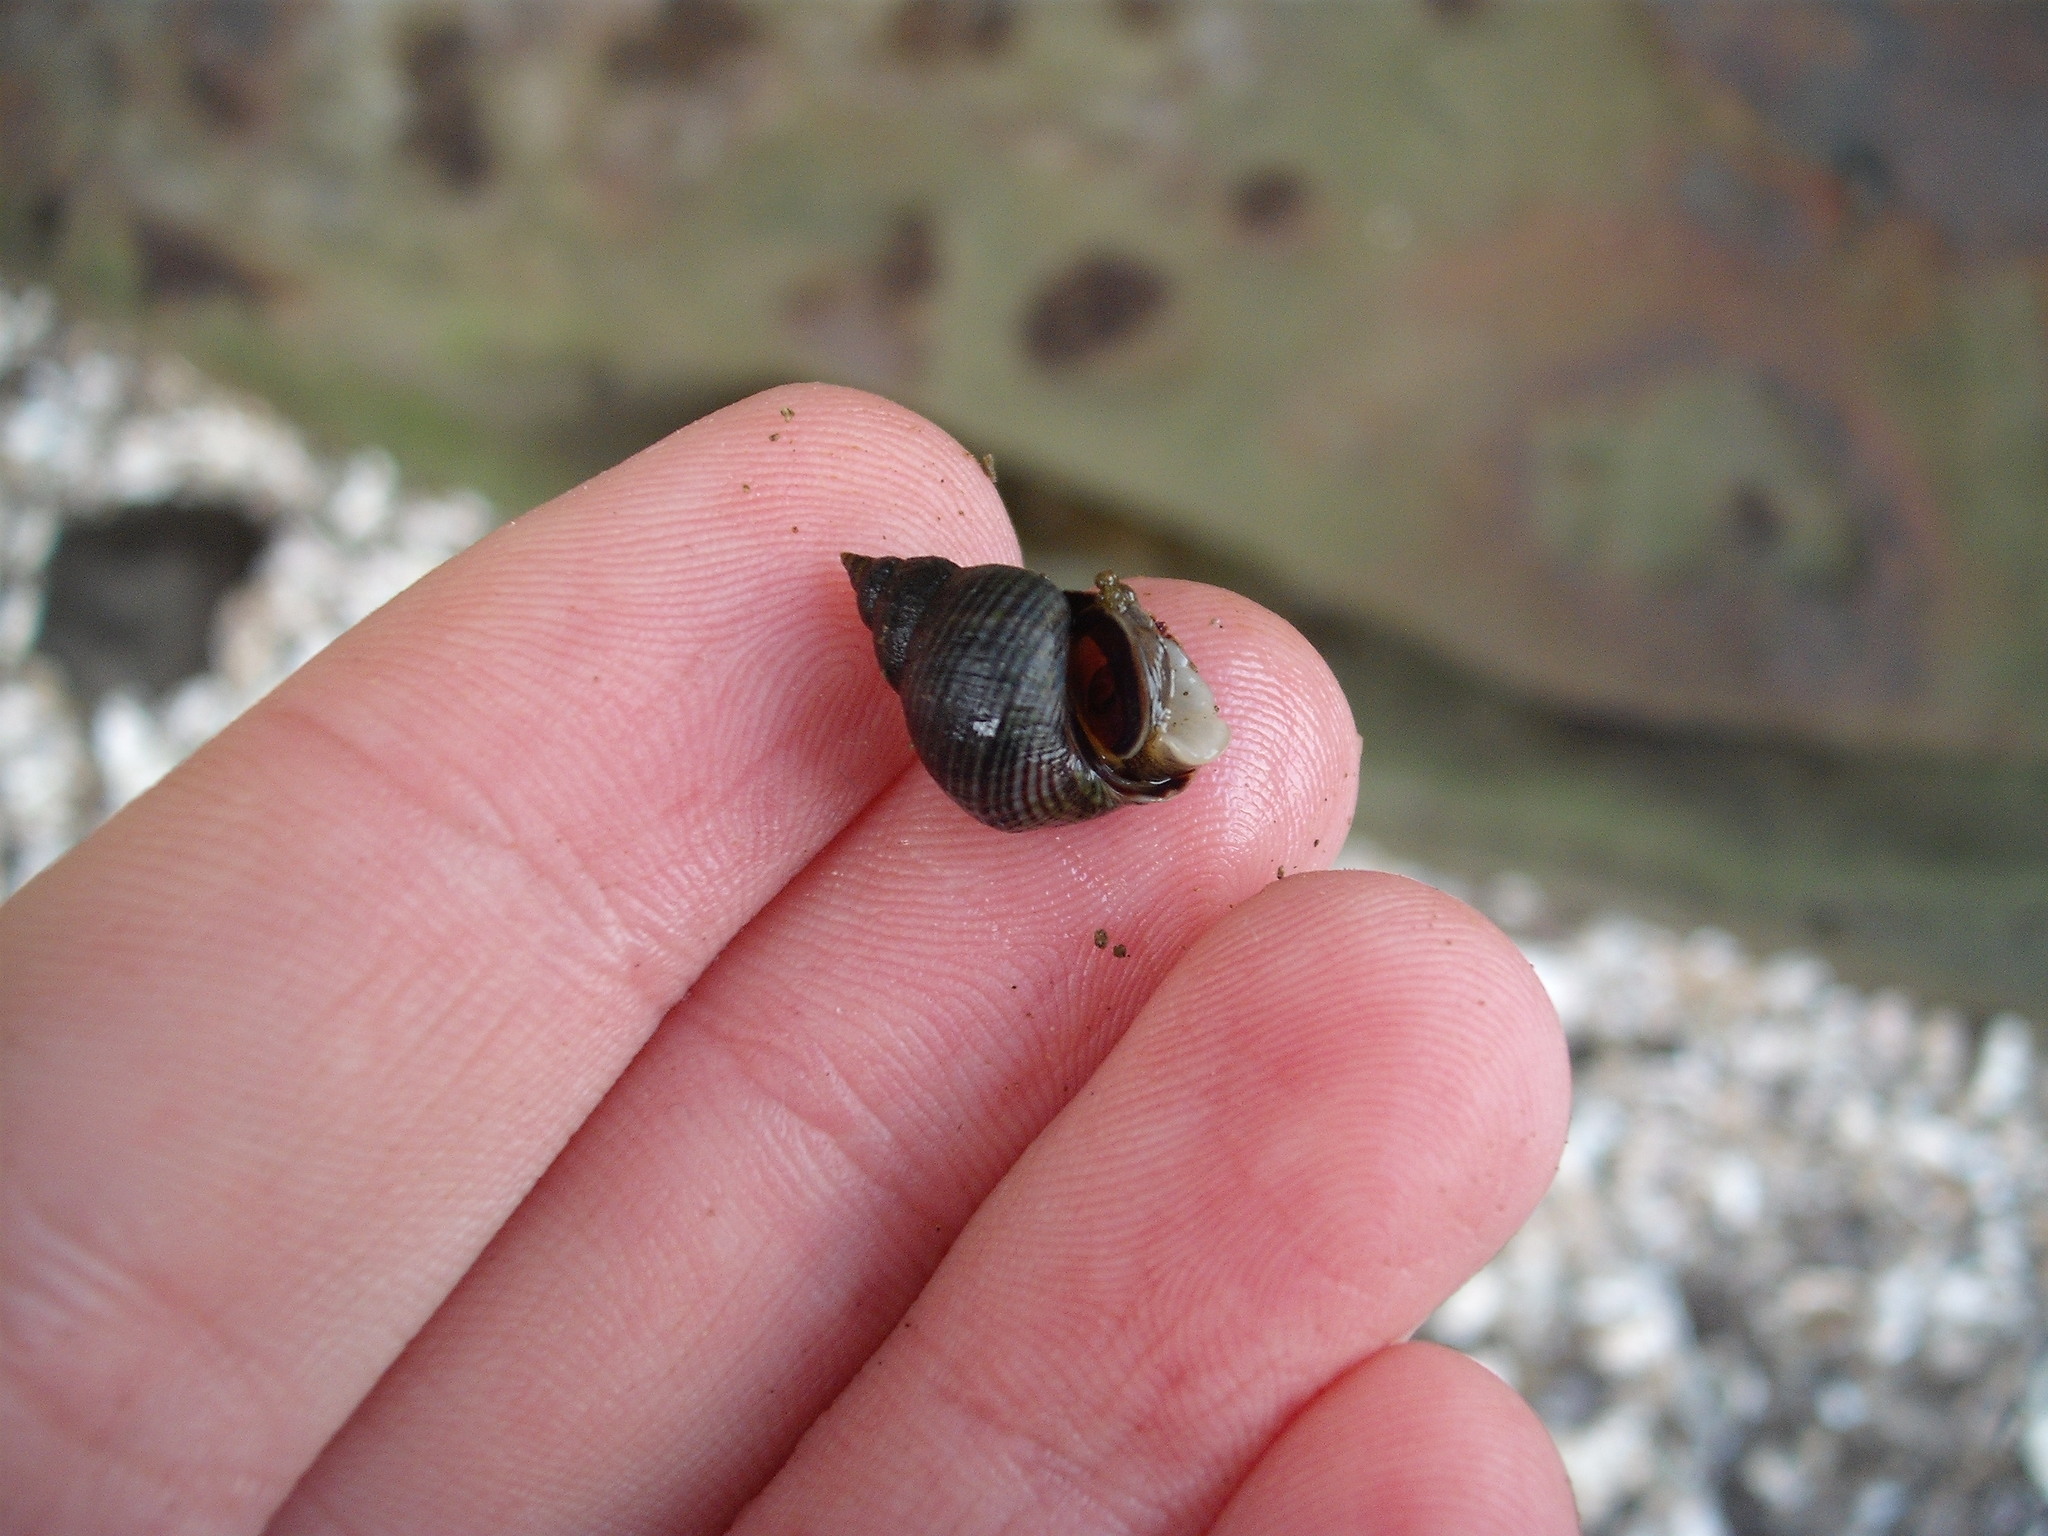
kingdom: Animalia
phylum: Mollusca
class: Gastropoda
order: Littorinimorpha
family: Littorinidae
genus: Austrolittorina
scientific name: Austrolittorina cincta
